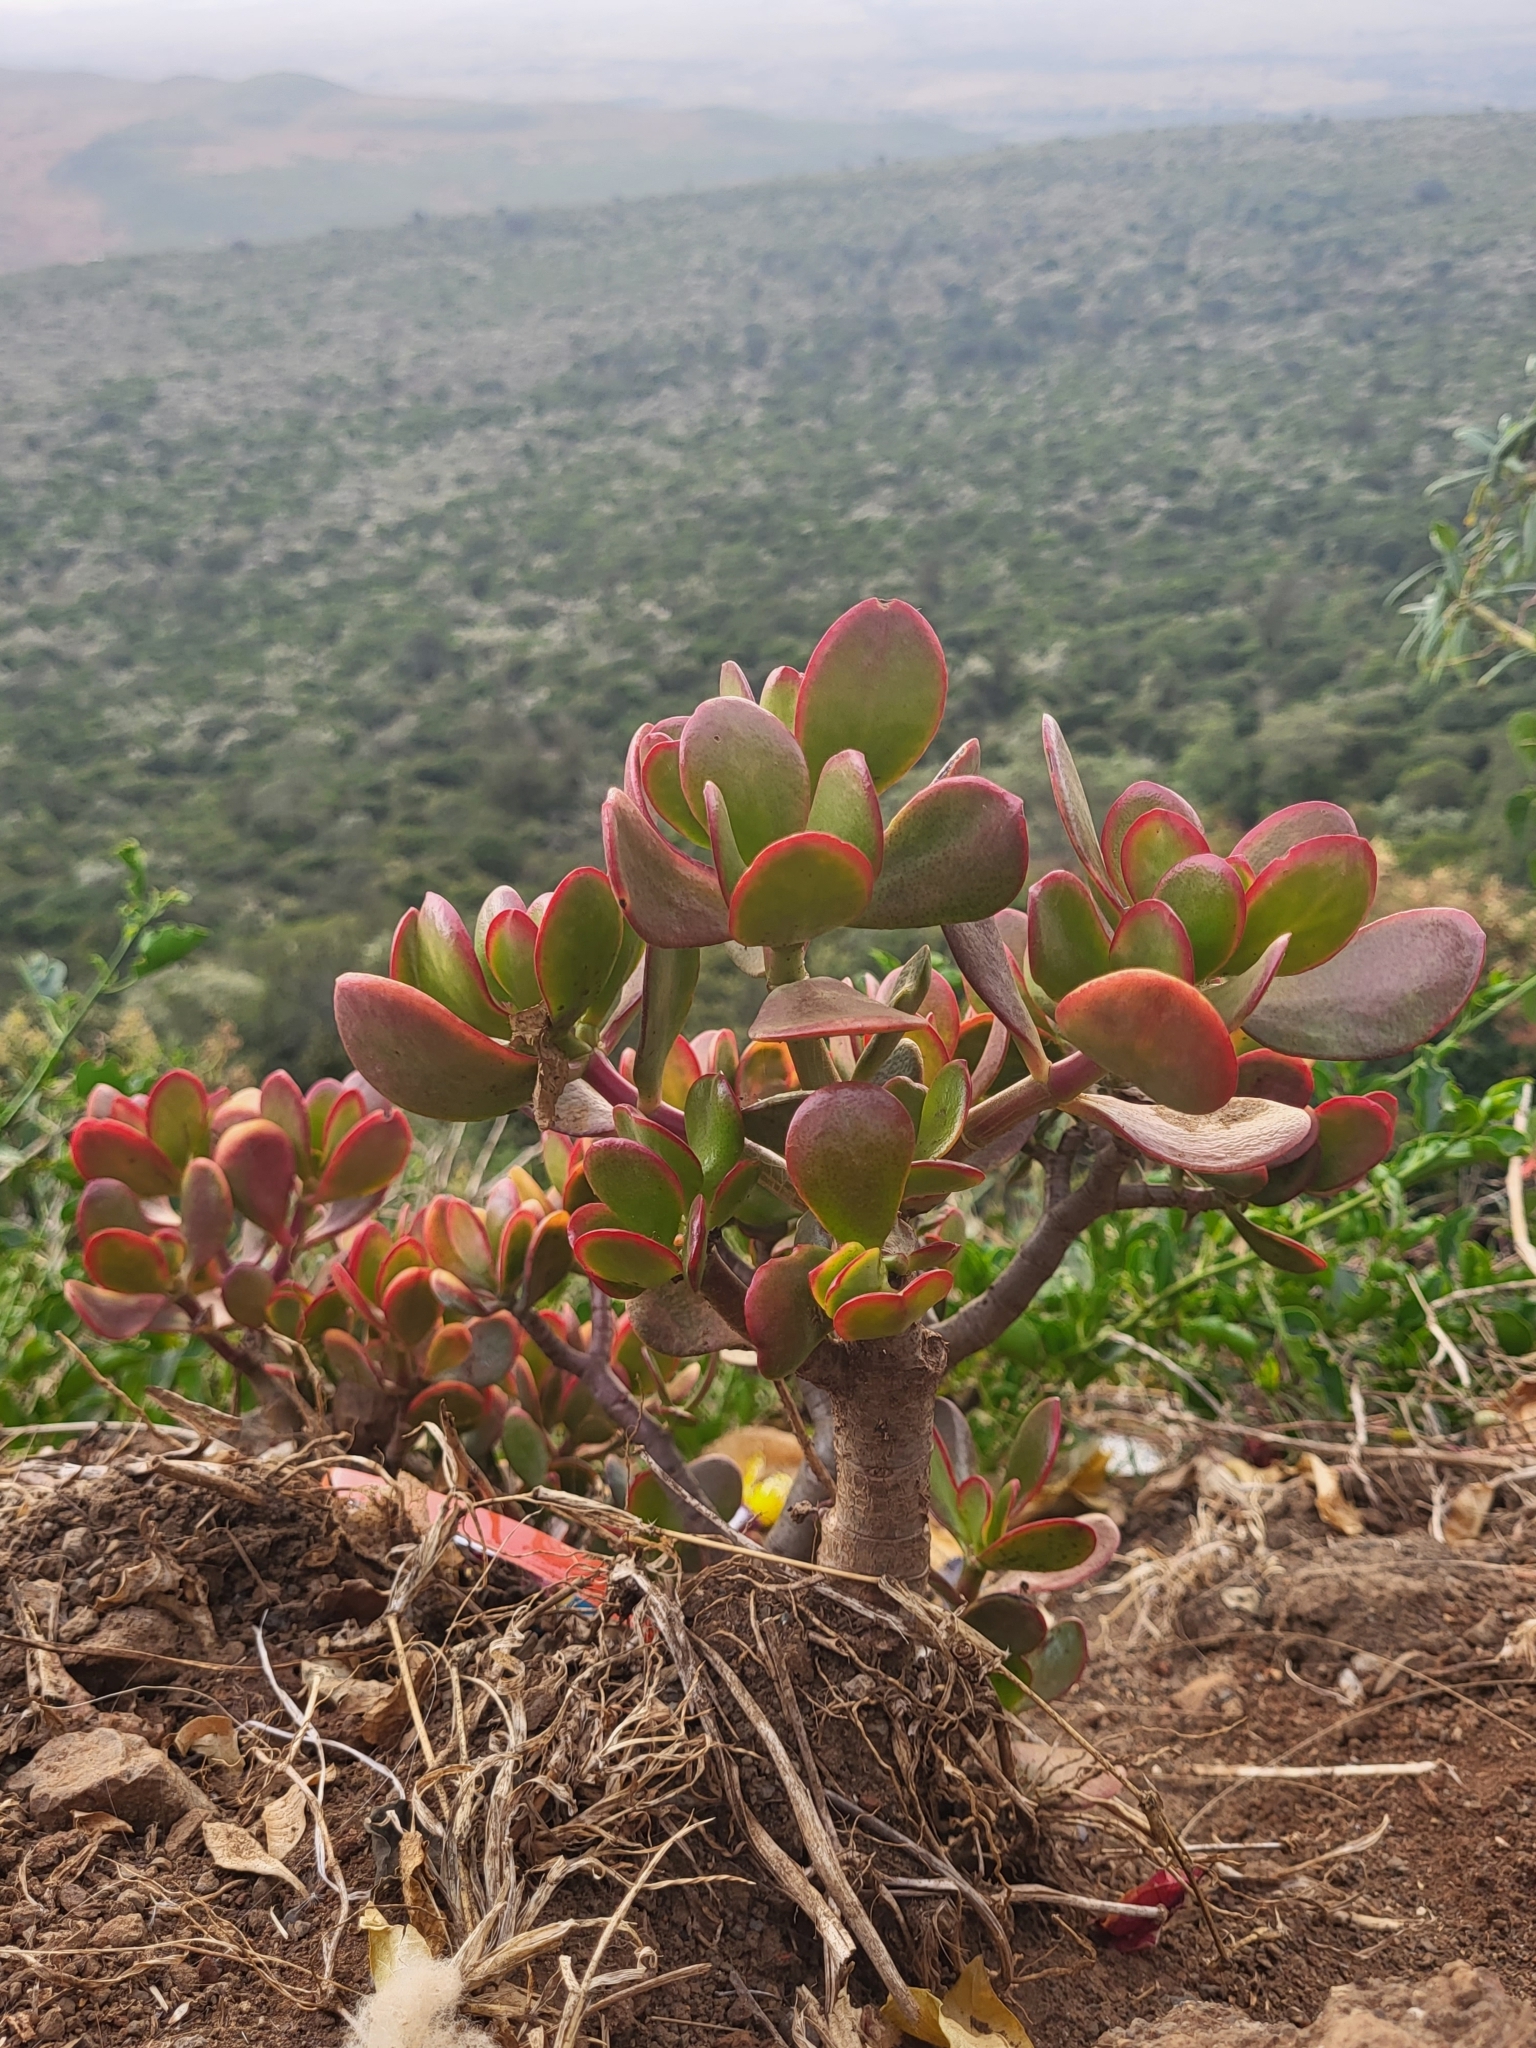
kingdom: Plantae
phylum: Tracheophyta
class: Magnoliopsida
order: Saxifragales
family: Crassulaceae
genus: Crassula
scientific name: Crassula ovata
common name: Jade plant
